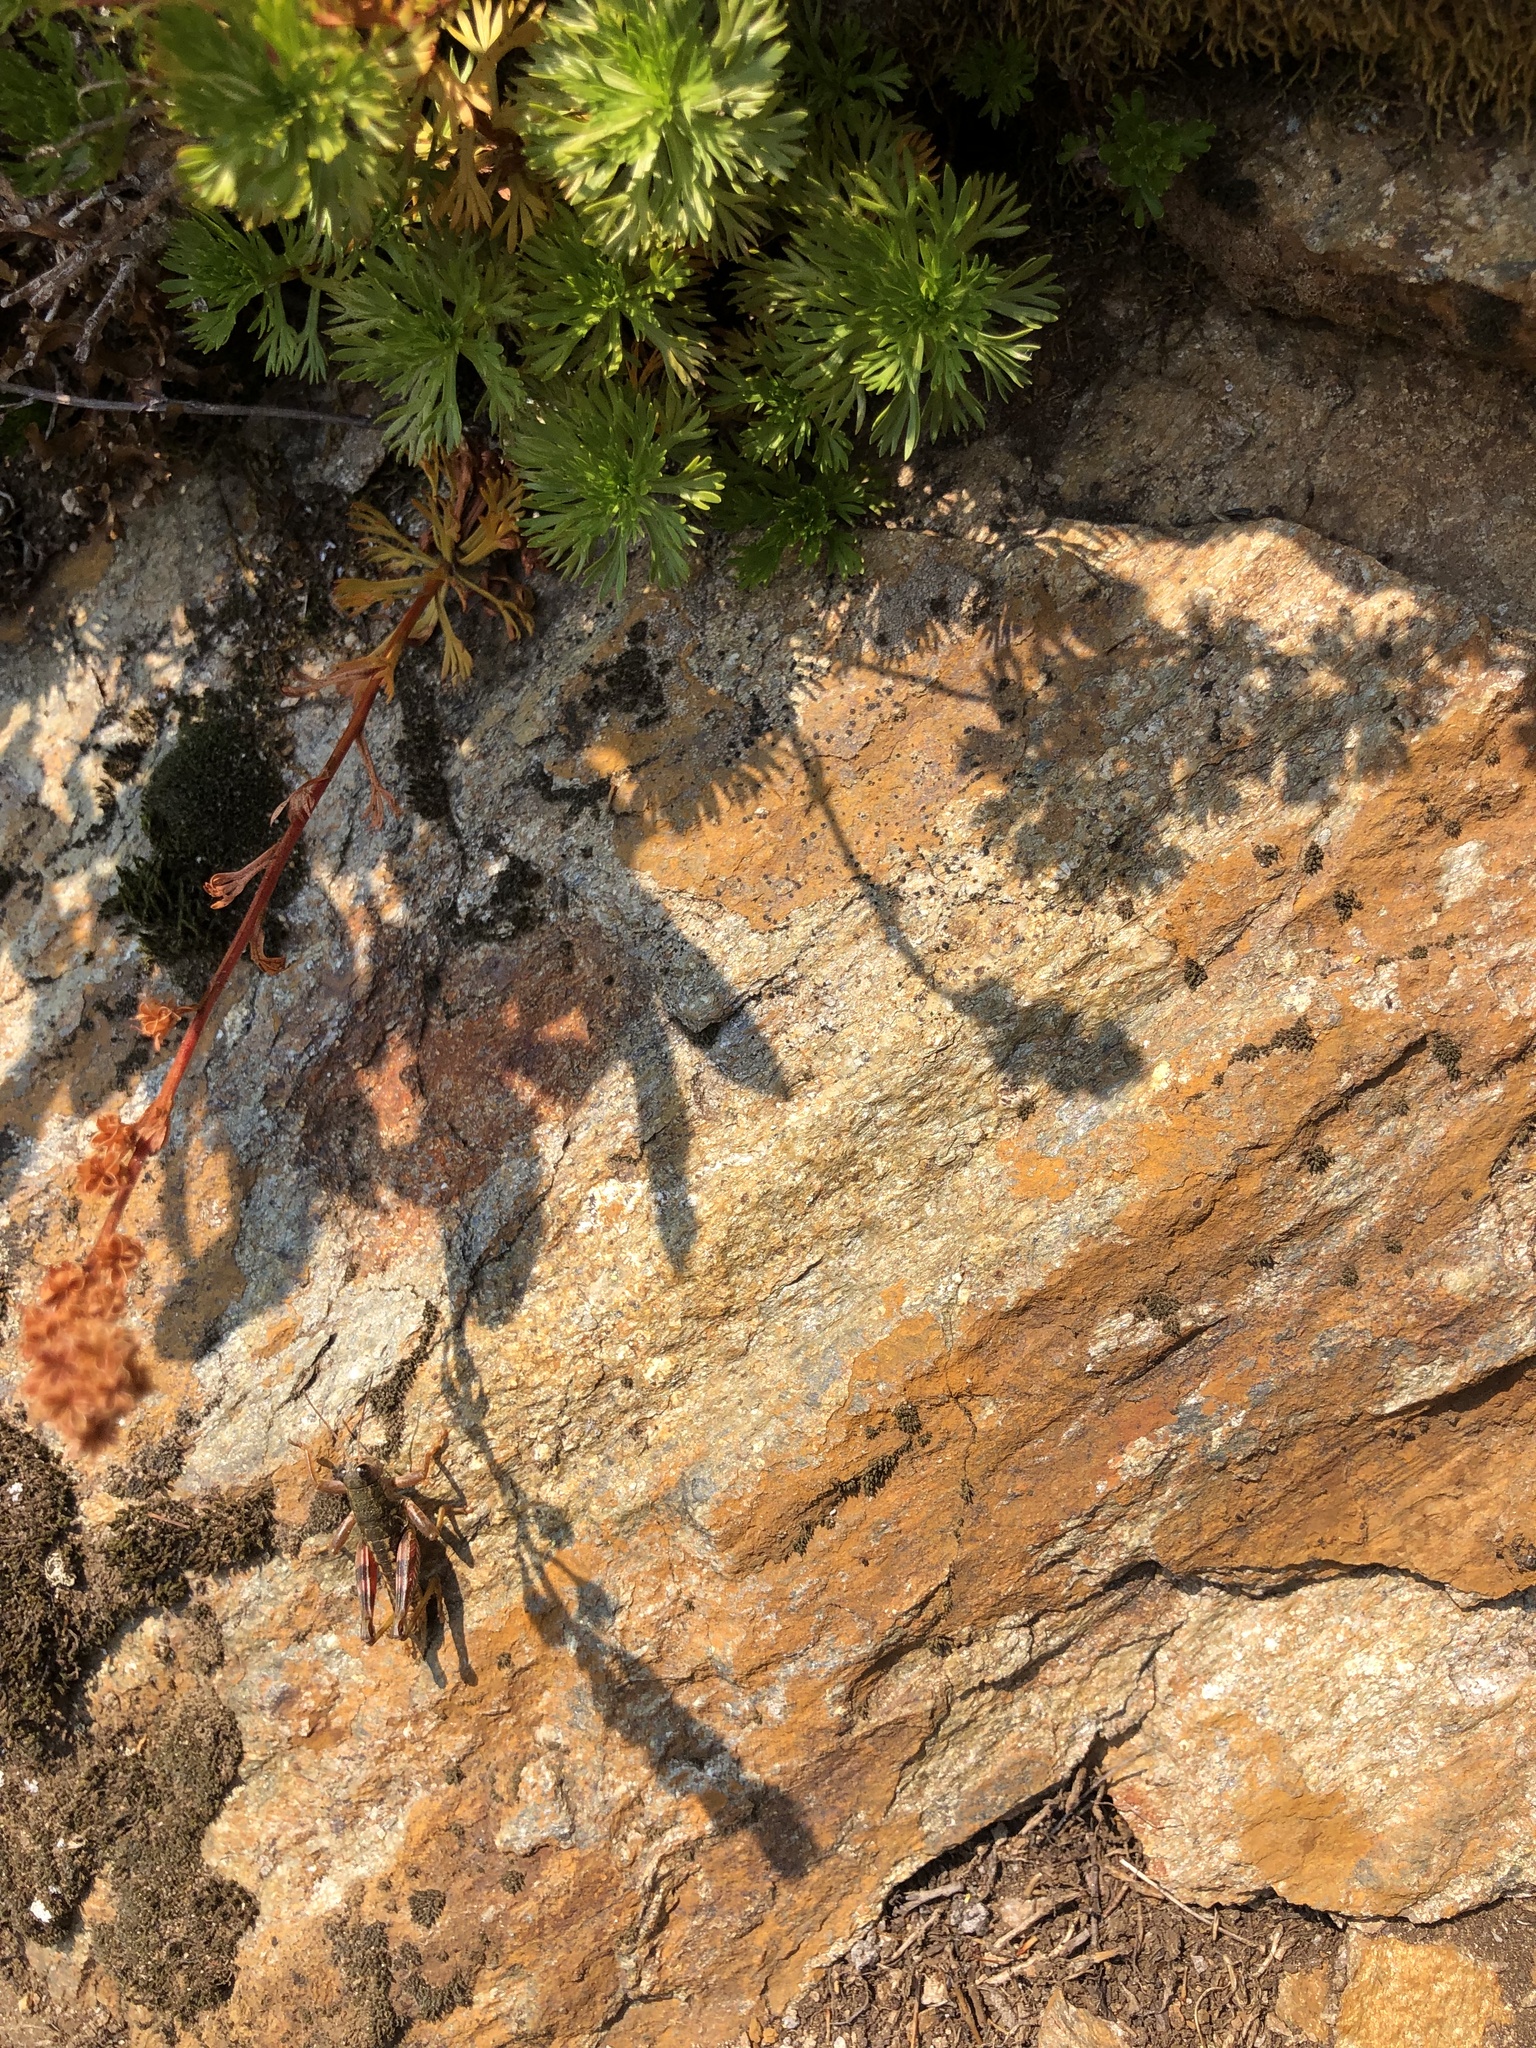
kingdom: Plantae
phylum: Tracheophyta
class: Magnoliopsida
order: Rosales
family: Rosaceae
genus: Luetkea
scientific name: Luetkea pectinata
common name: Partridgefoot
